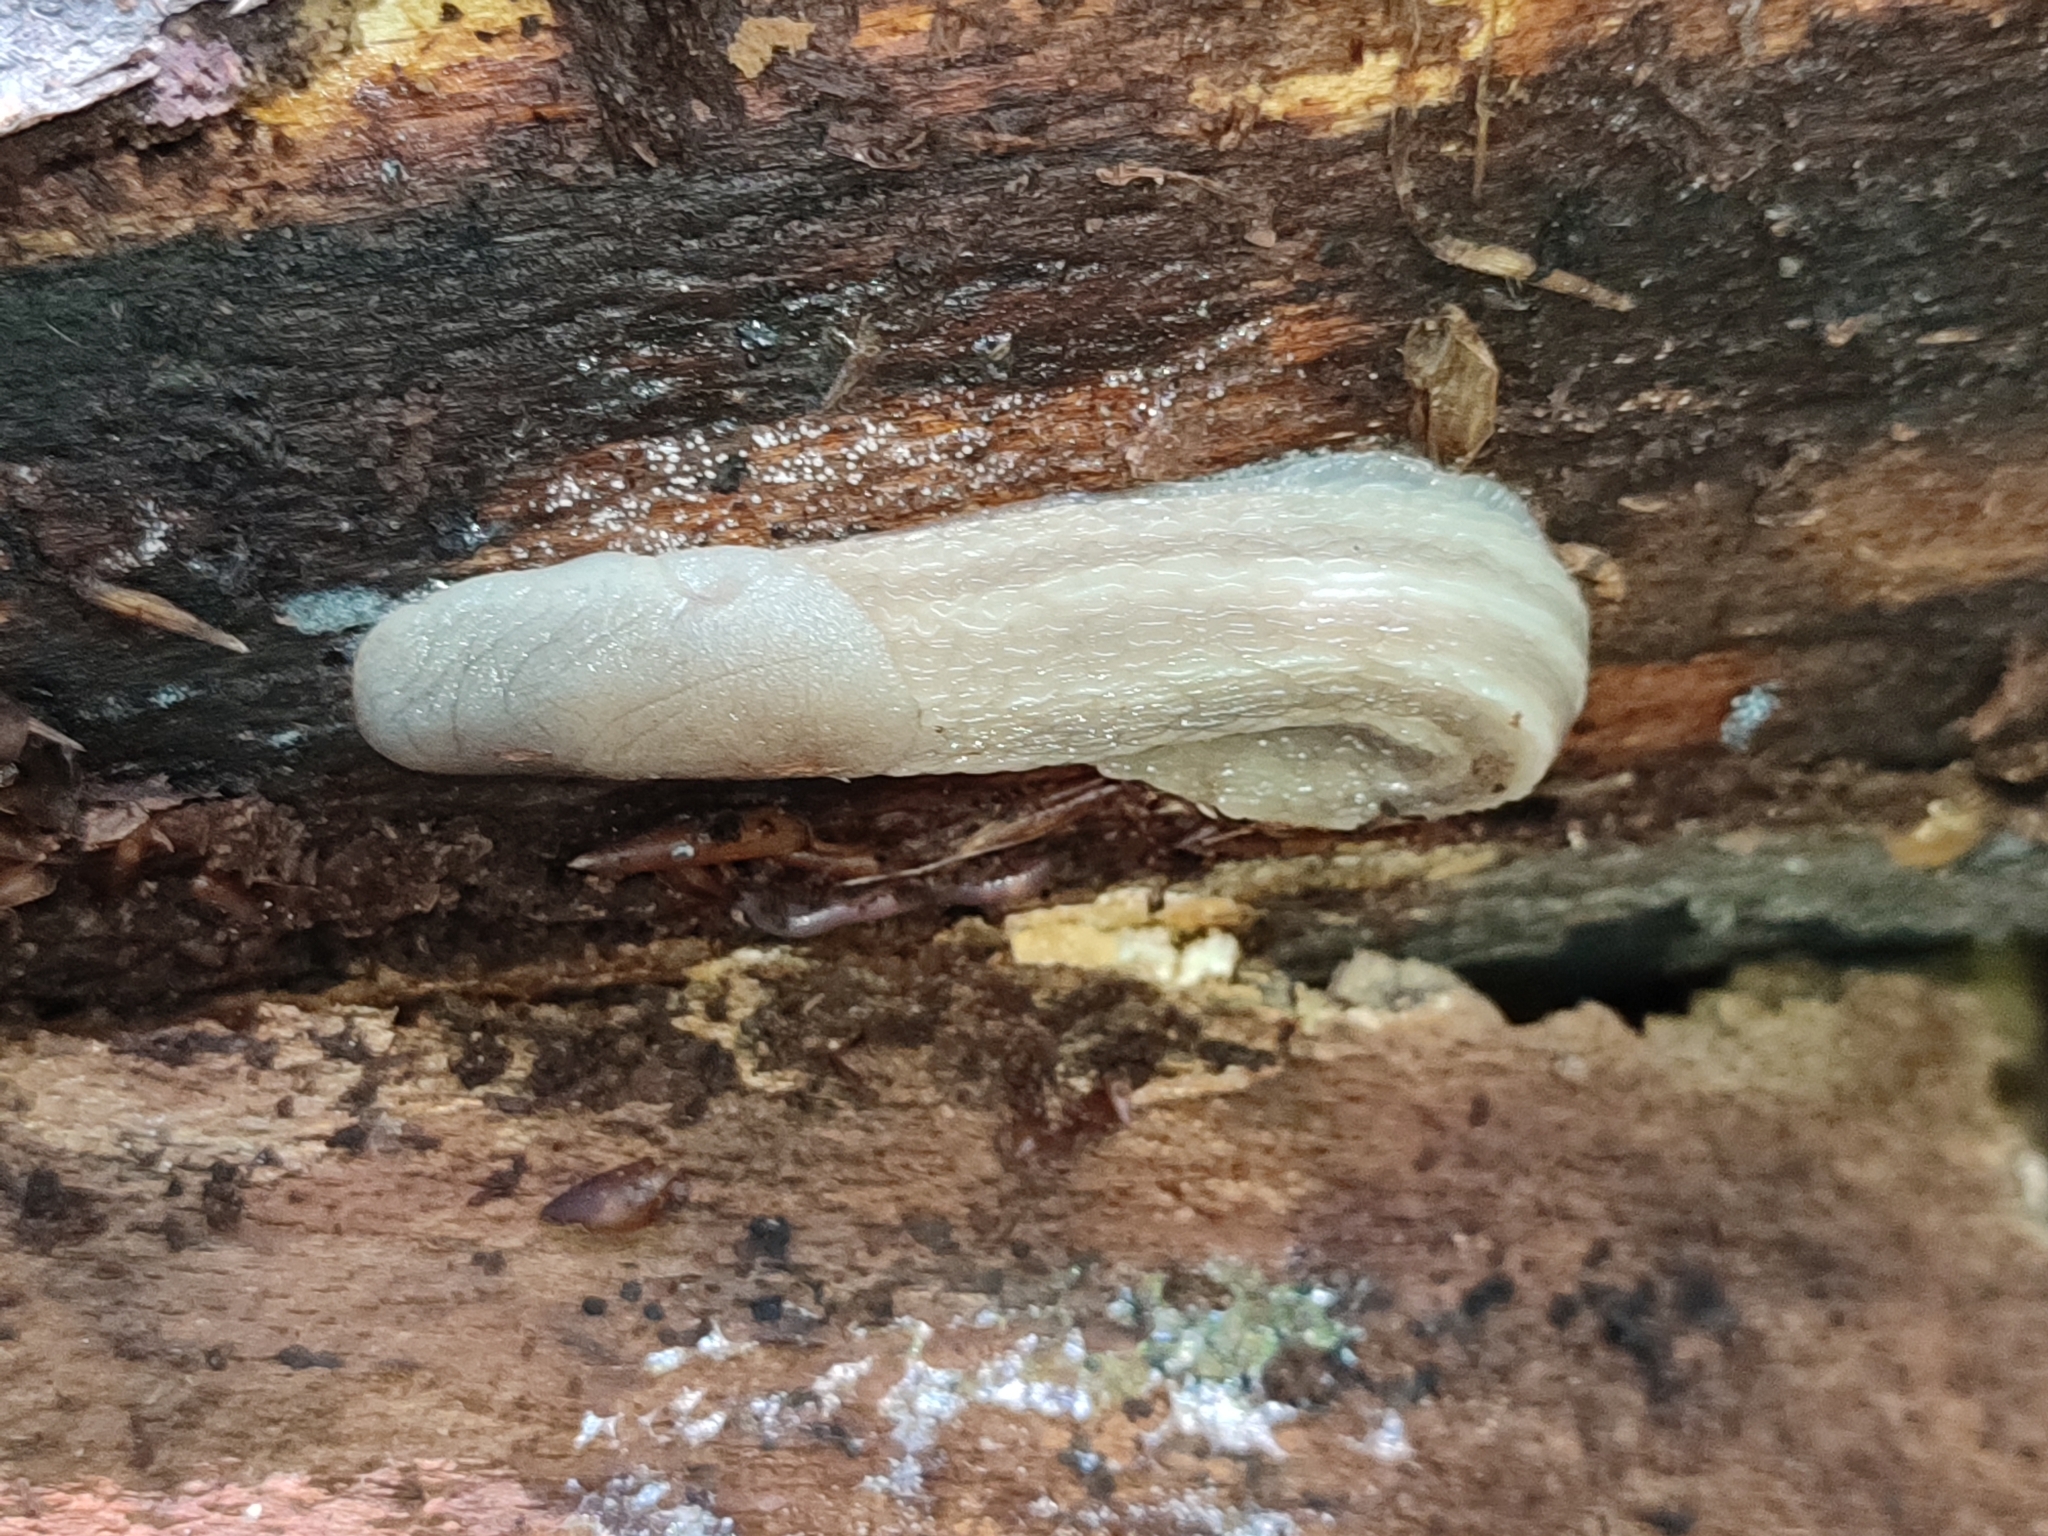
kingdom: Animalia
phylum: Mollusca
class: Gastropoda
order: Stylommatophora
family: Limacidae
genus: Limax
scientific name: Limax cinereoniger
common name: Ash-black slug
